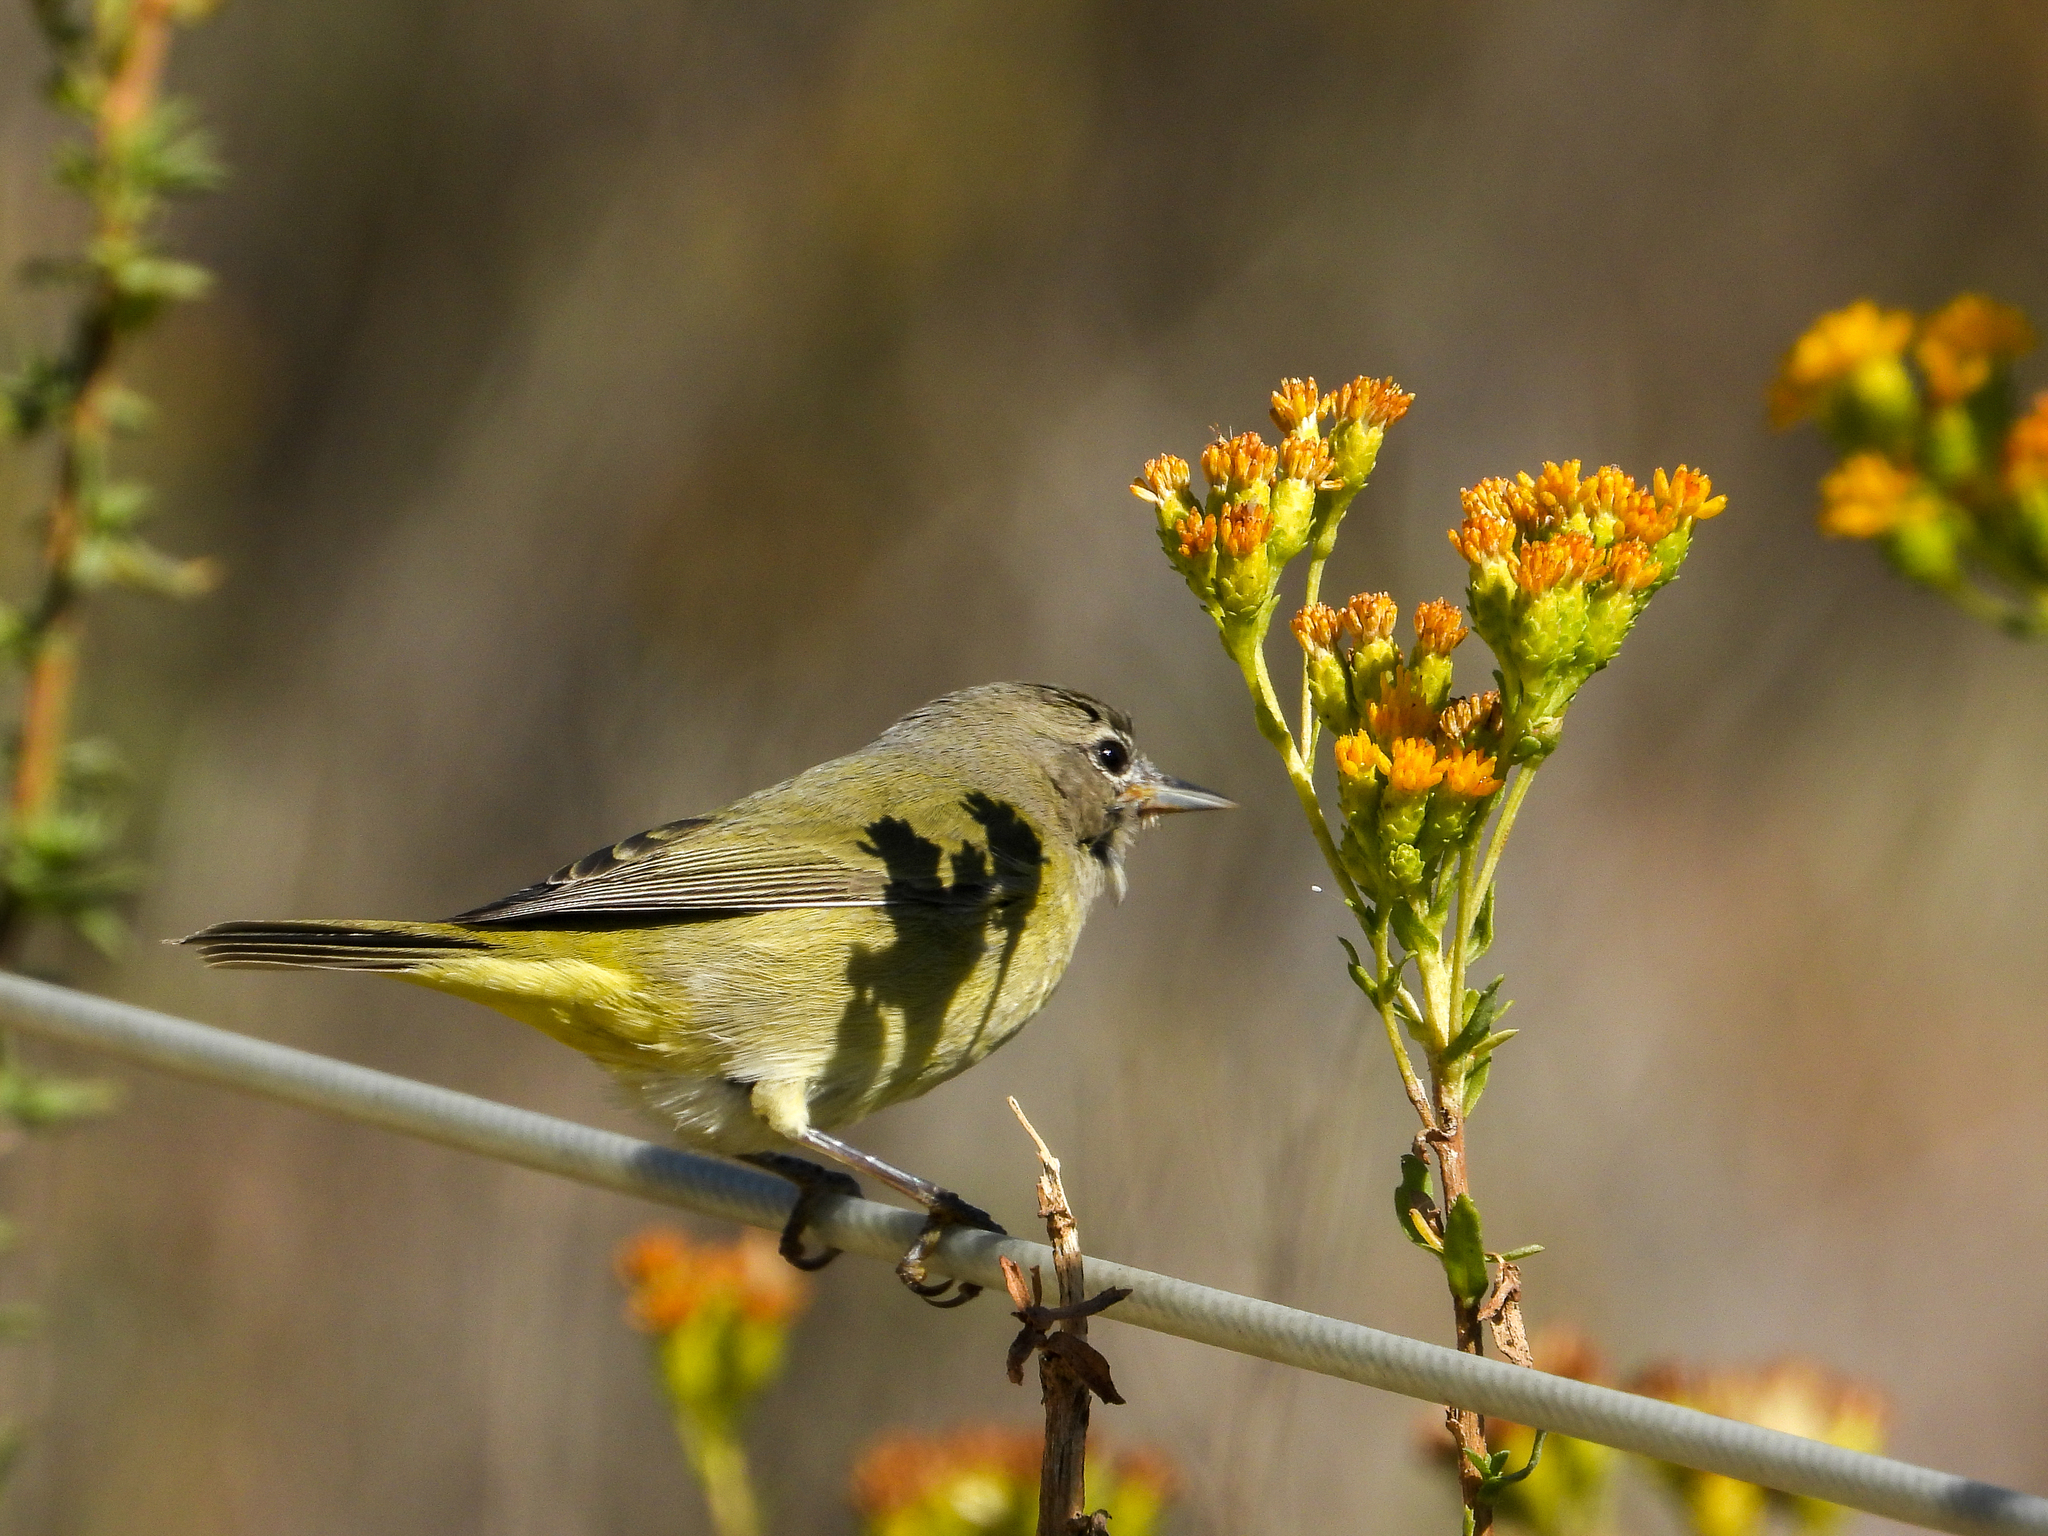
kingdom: Animalia
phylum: Chordata
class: Aves
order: Passeriformes
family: Parulidae
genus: Leiothlypis
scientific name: Leiothlypis celata
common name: Orange-crowned warbler
